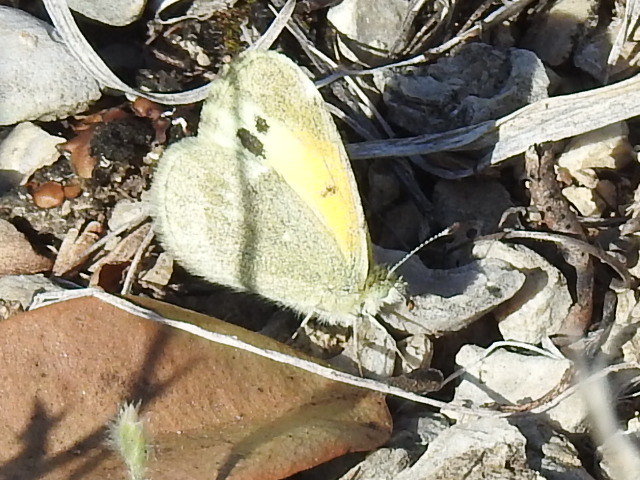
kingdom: Animalia
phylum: Arthropoda
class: Insecta
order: Lepidoptera
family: Pieridae
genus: Nathalis
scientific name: Nathalis iole
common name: Dainty sulphur
